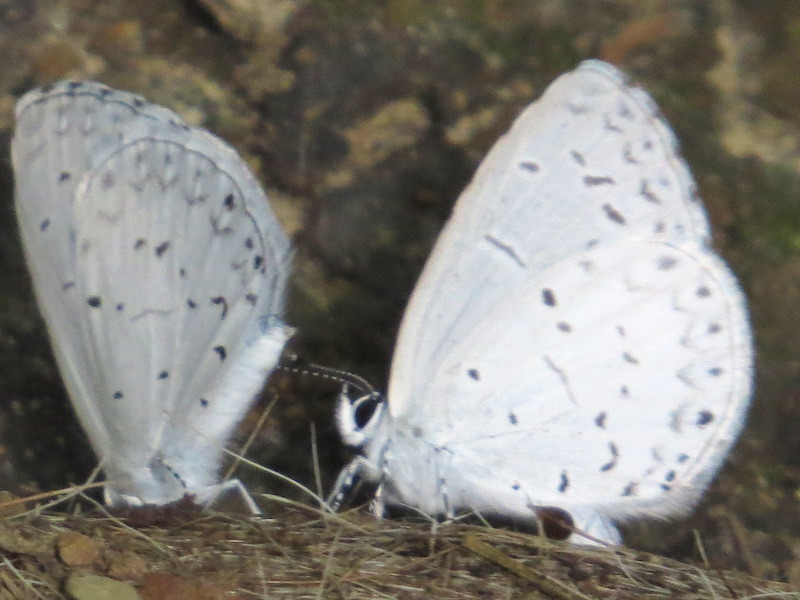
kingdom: Animalia
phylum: Arthropoda
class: Insecta
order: Lepidoptera
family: Lycaenidae
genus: Cyaniris
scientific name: Cyaniris neglecta
